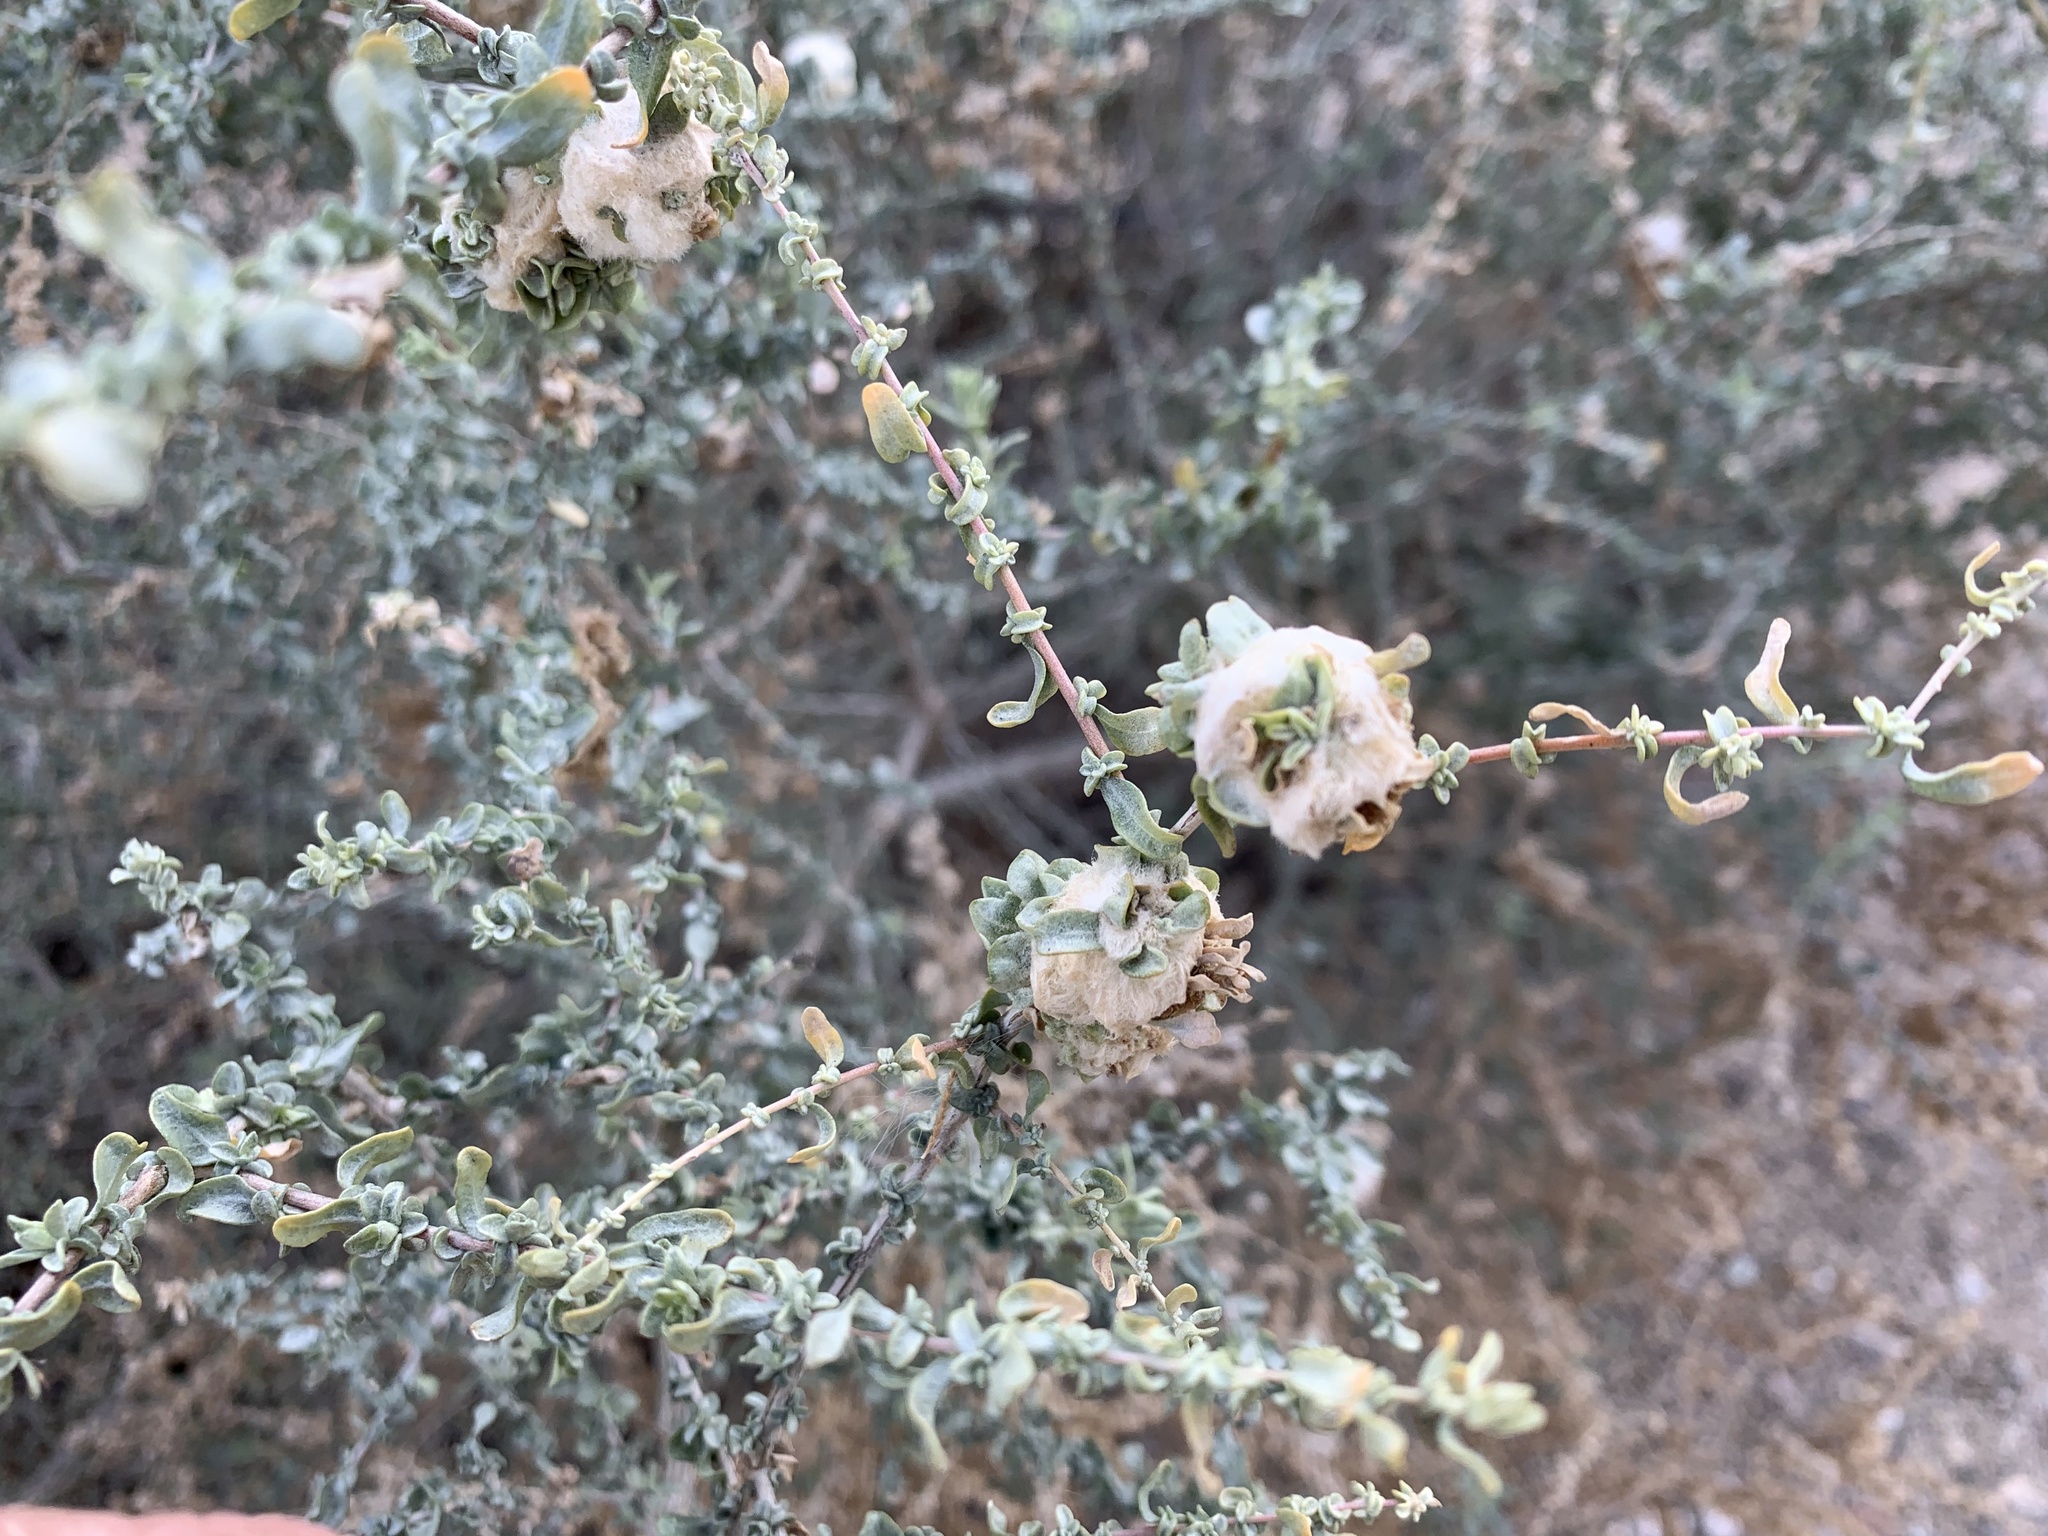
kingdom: Animalia
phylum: Arthropoda
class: Insecta
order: Diptera
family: Cecidomyiidae
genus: Asphondylia
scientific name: Asphondylia floccosa
